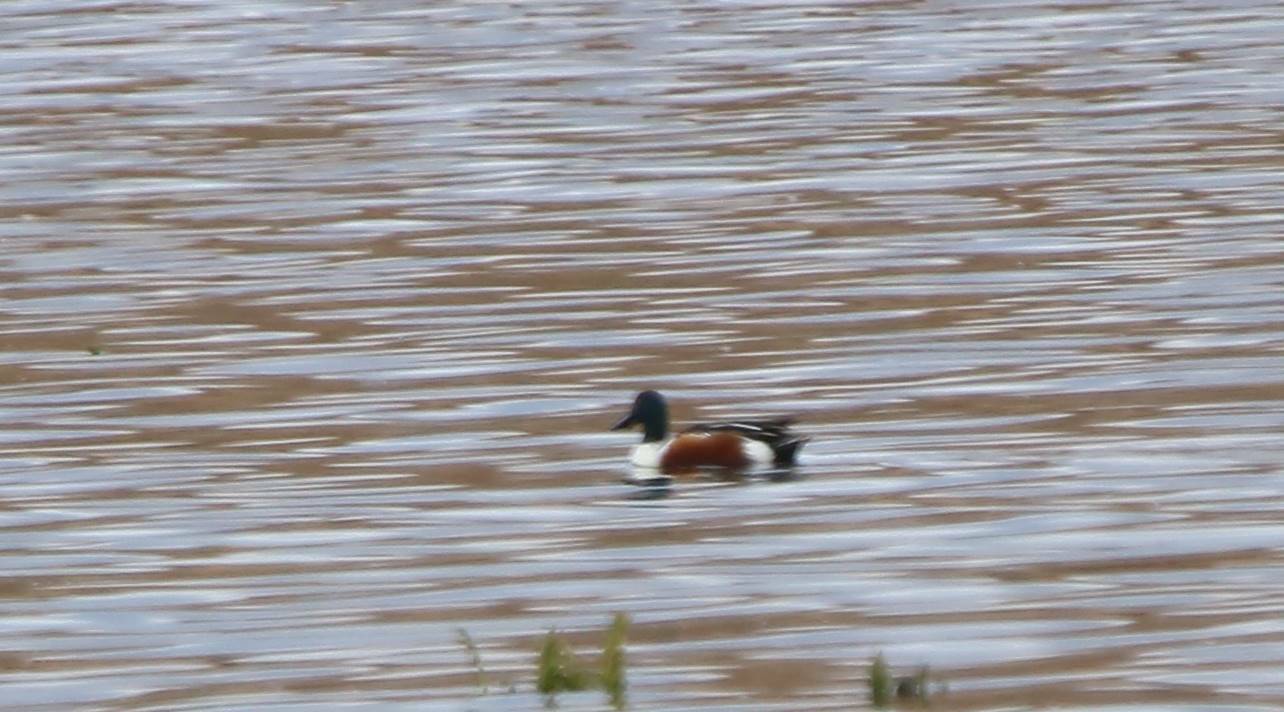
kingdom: Animalia
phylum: Chordata
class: Aves
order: Anseriformes
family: Anatidae
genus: Spatula
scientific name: Spatula clypeata
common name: Northern shoveler
